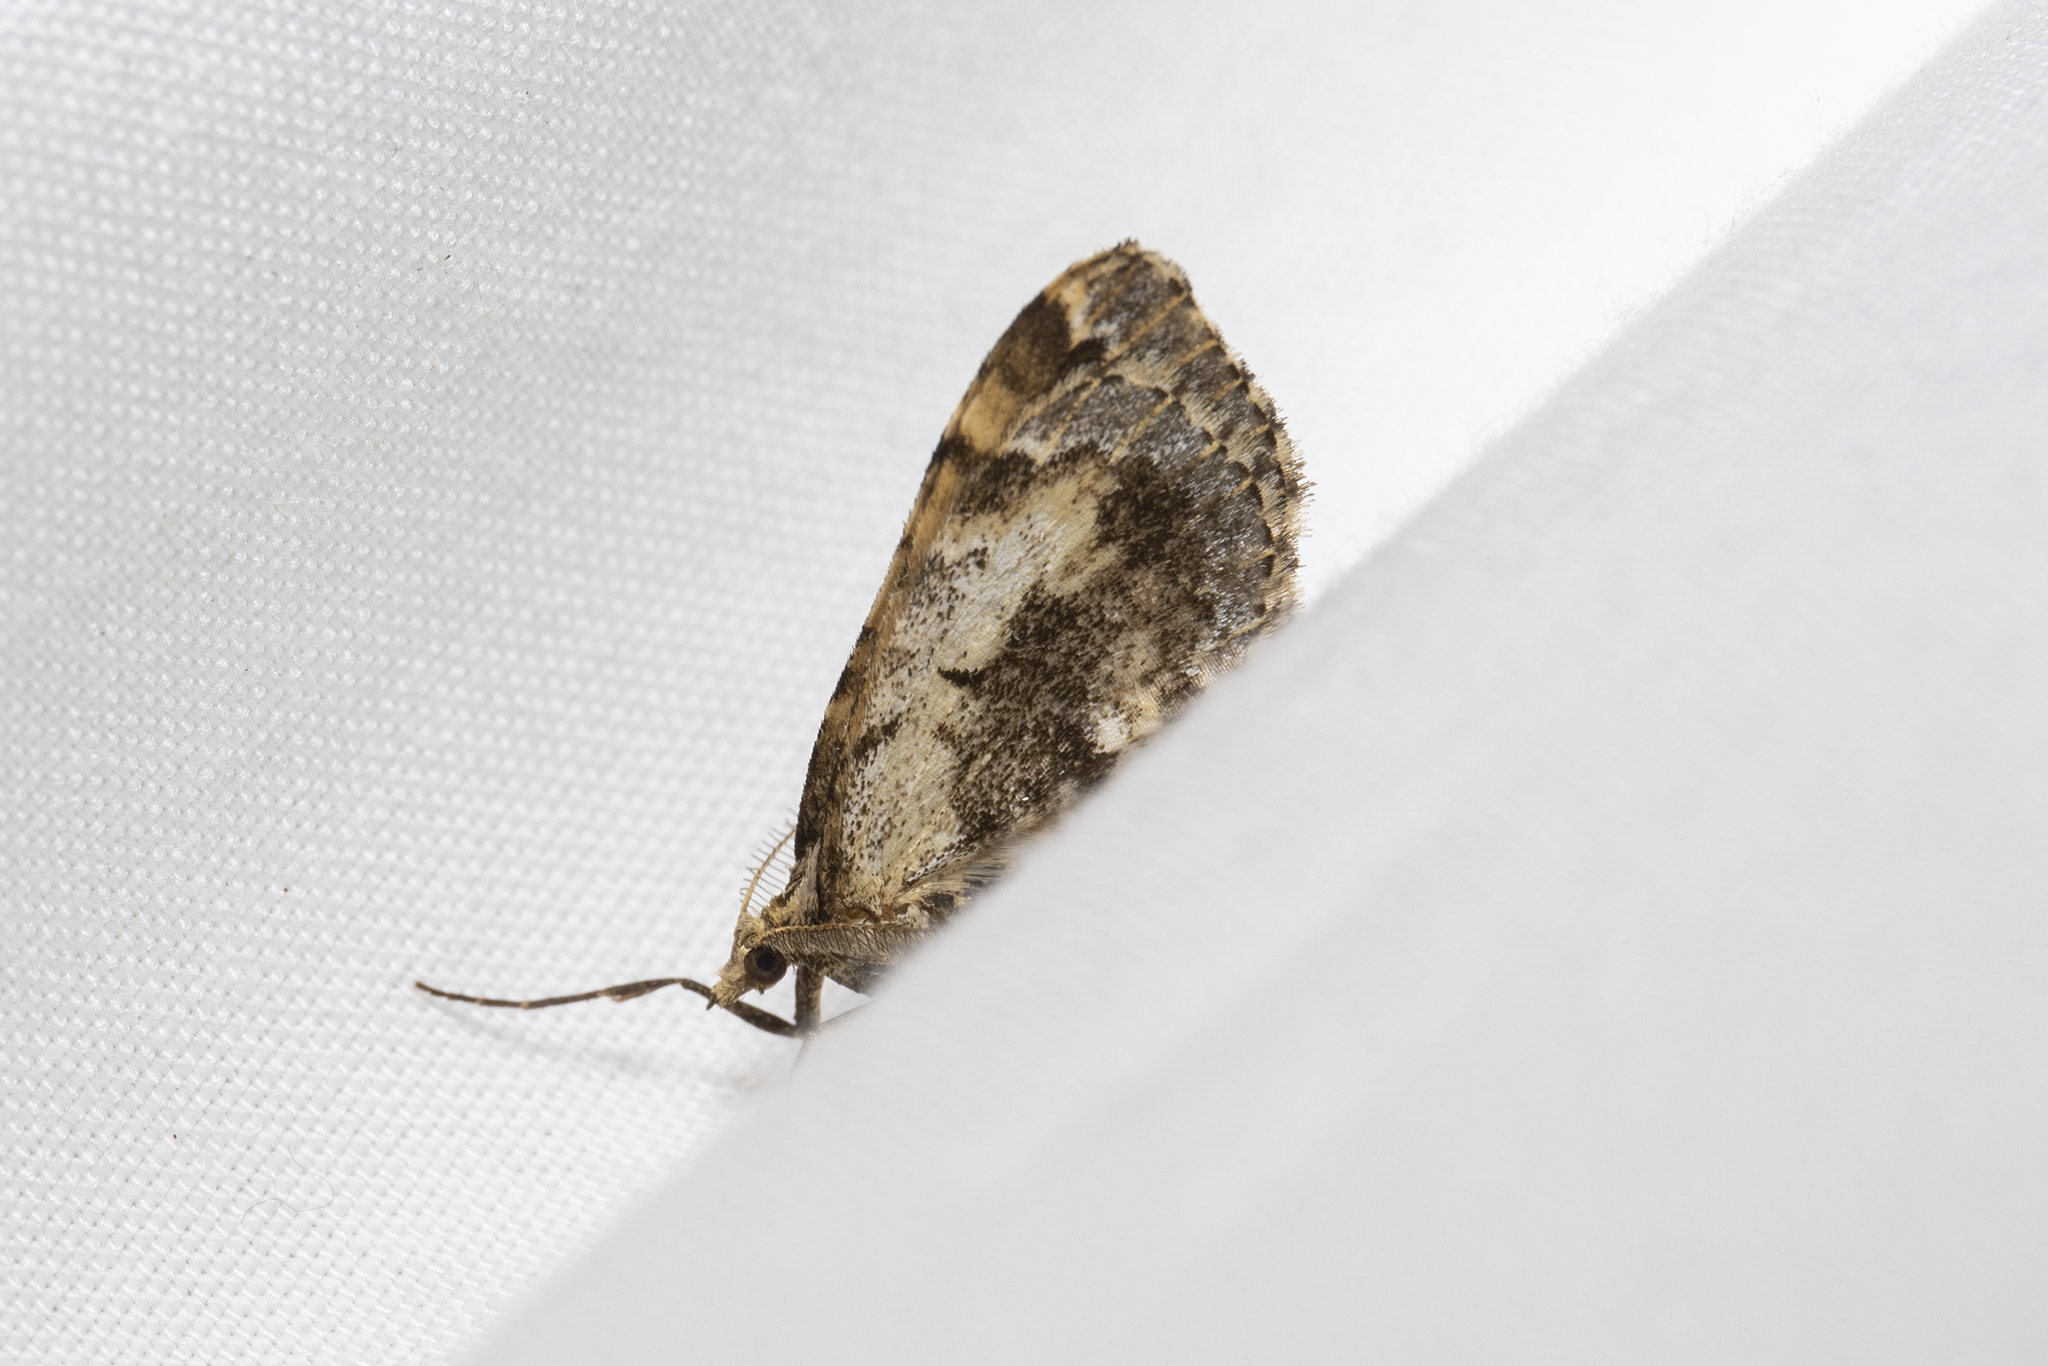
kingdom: Animalia
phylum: Arthropoda
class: Insecta
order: Lepidoptera
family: Geometridae
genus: Asaphodes
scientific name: Asaphodes aegrota
